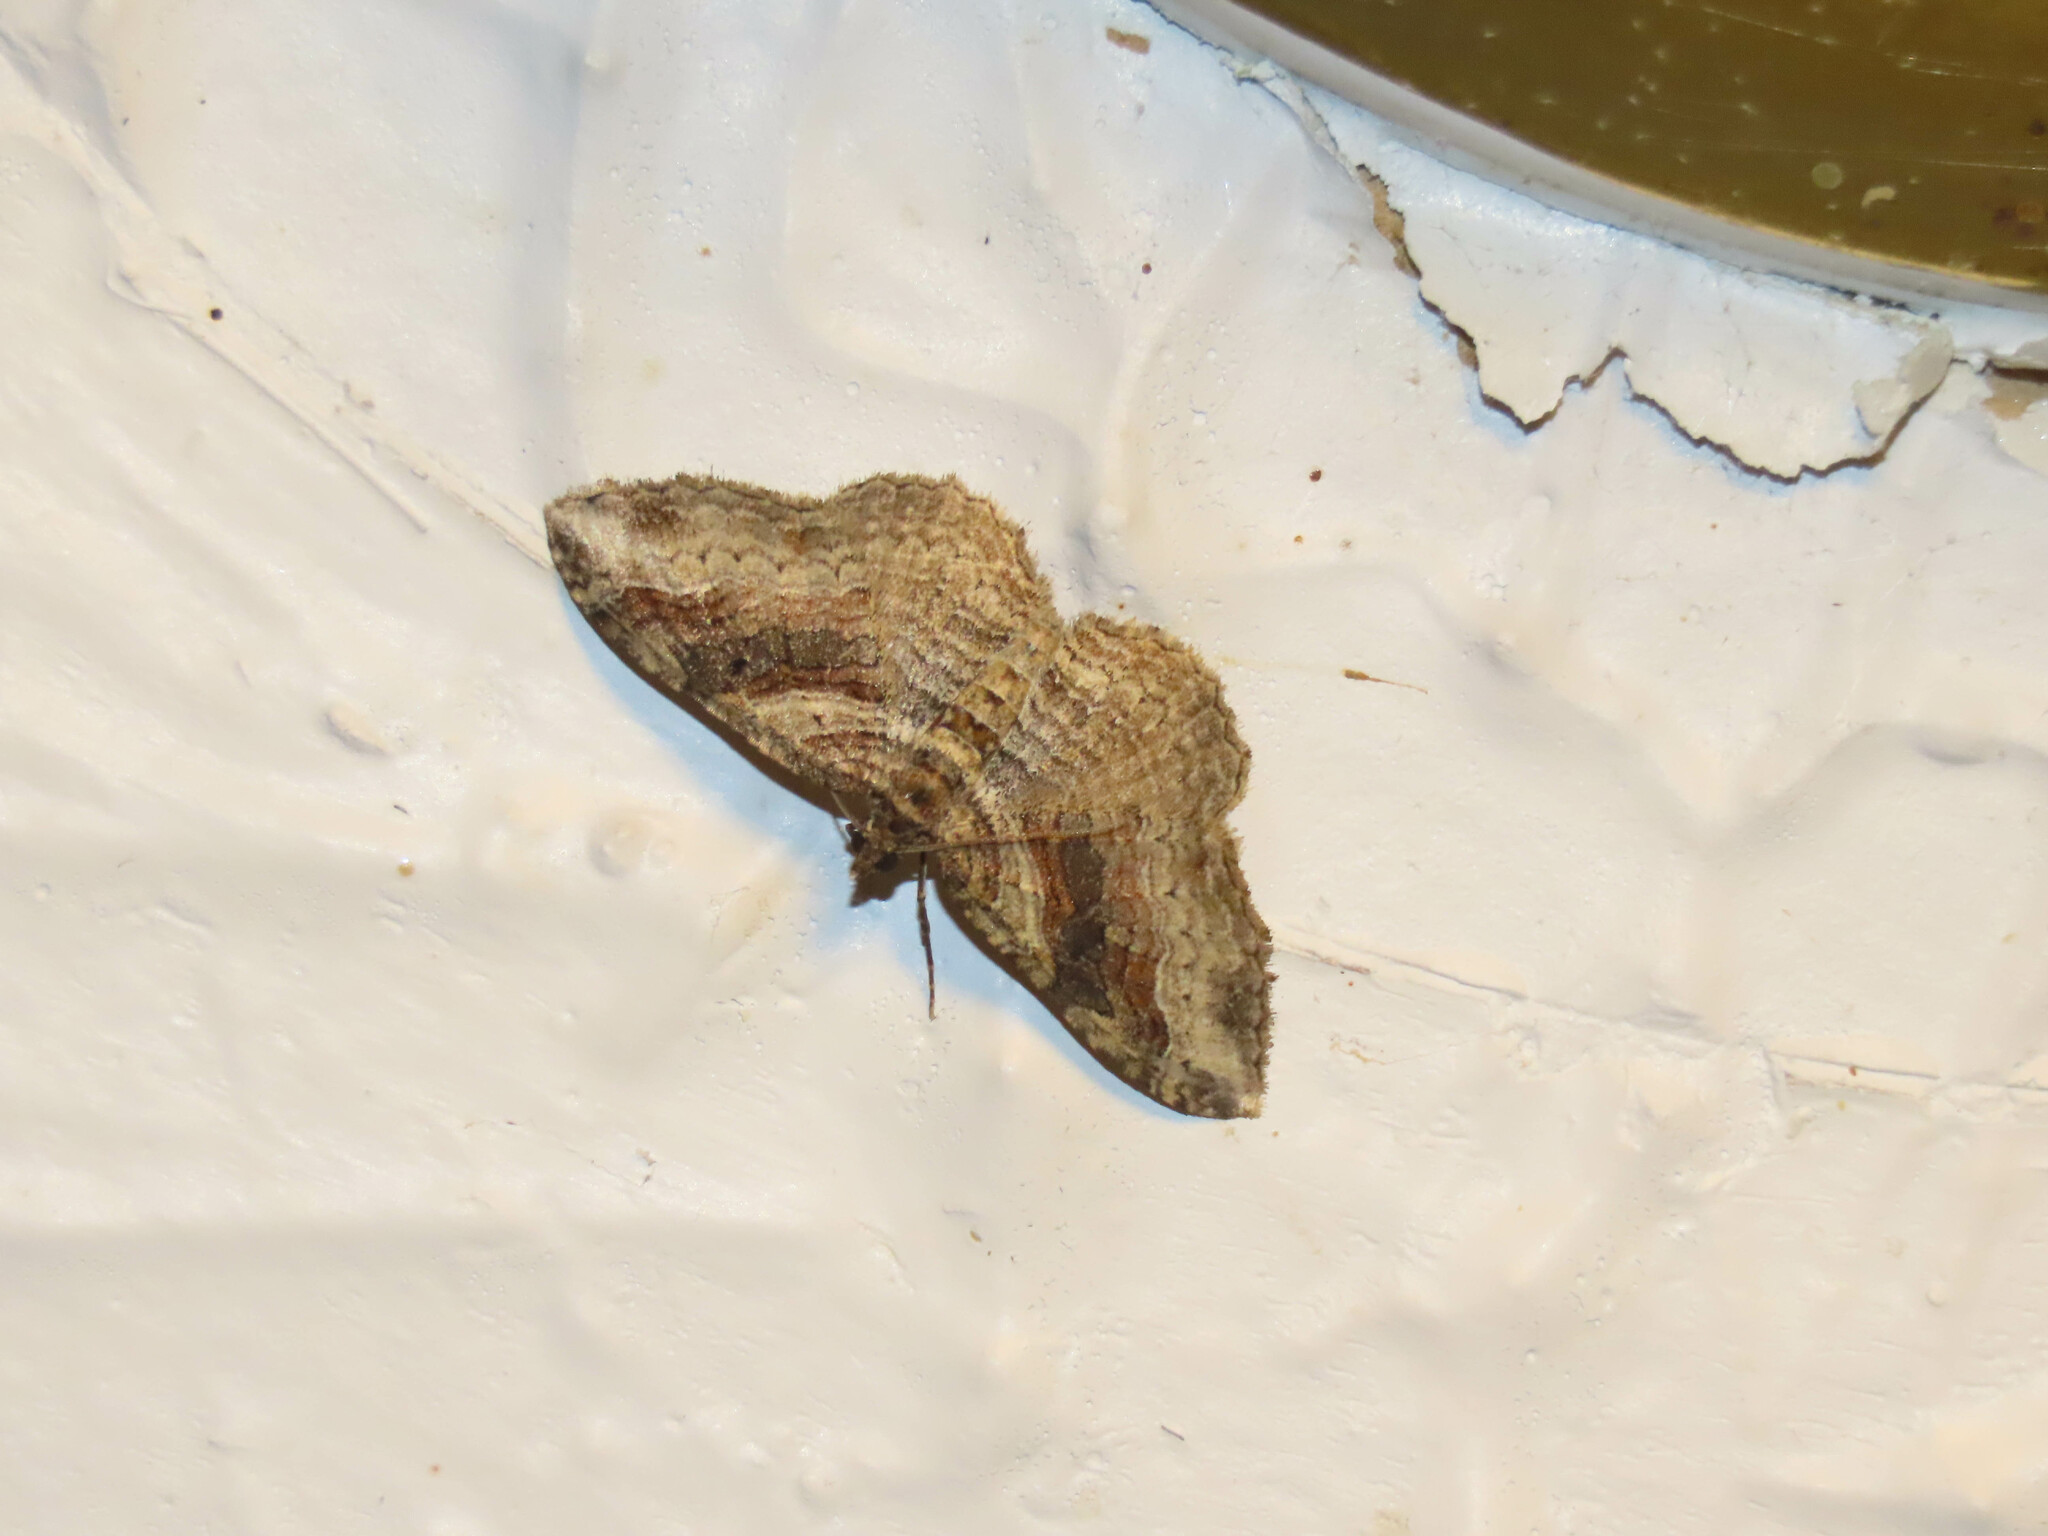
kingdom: Animalia
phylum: Arthropoda
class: Insecta
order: Lepidoptera
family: Geometridae
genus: Costaconvexa
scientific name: Costaconvexa centrostrigaria
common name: Bent-line carpet
